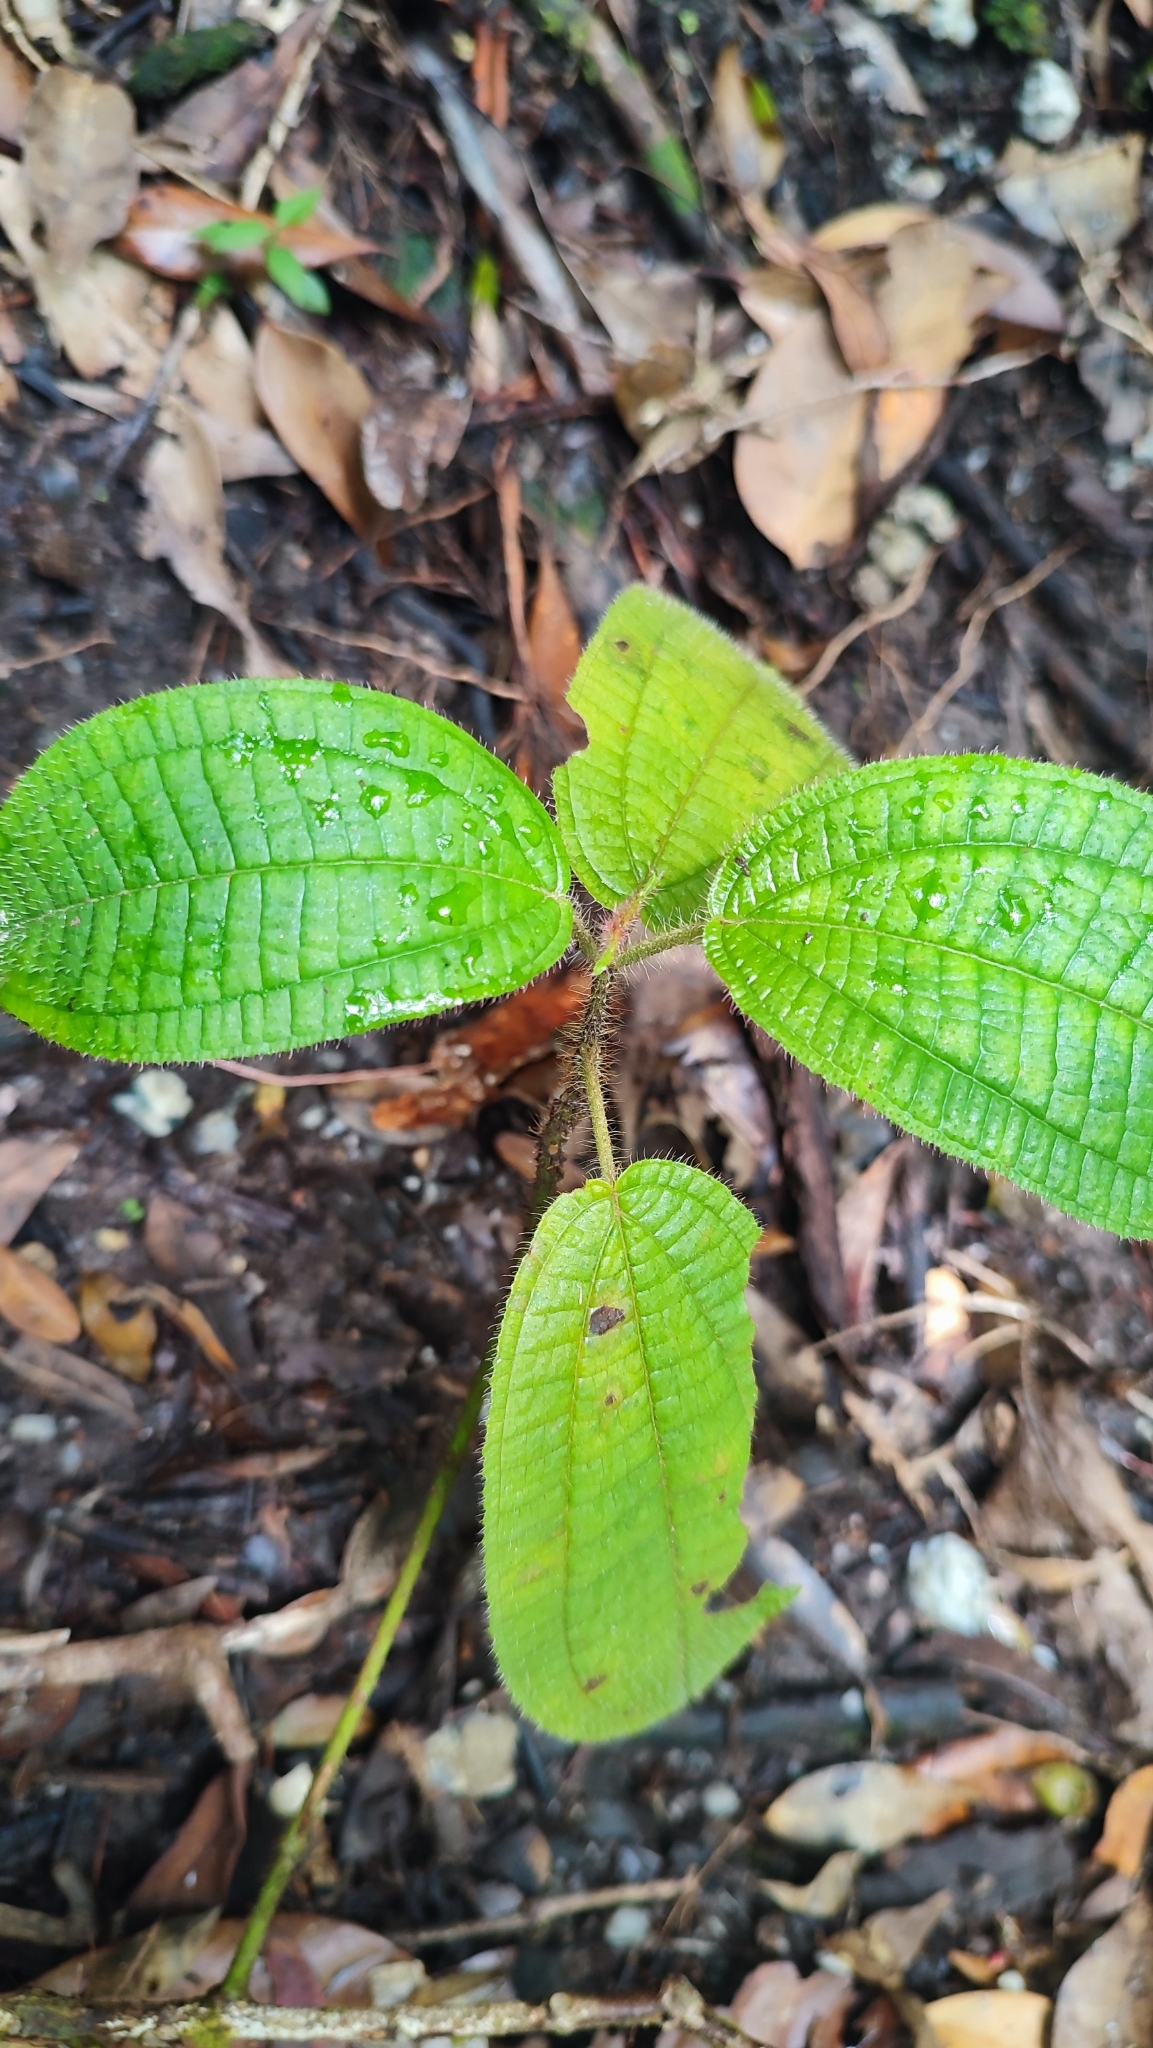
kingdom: Plantae
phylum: Tracheophyta
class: Magnoliopsida
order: Myrtales
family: Melastomataceae
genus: Miconia
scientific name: Miconia crenata
